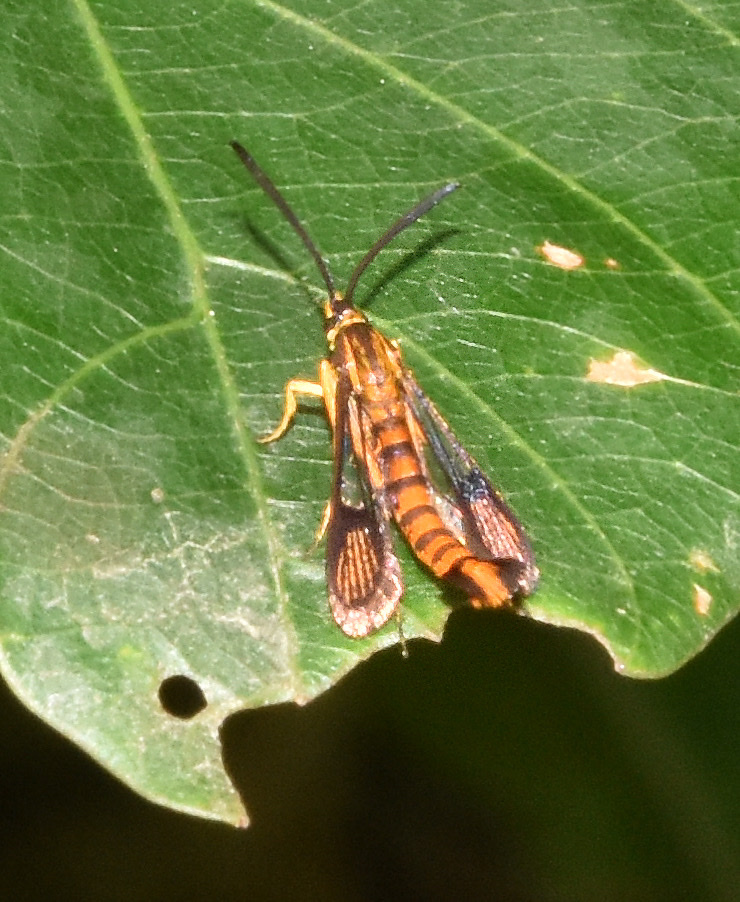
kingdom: Animalia
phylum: Arthropoda
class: Insecta
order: Lepidoptera
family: Sesiidae
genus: Synanthedon
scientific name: Synanthedon ochracea
